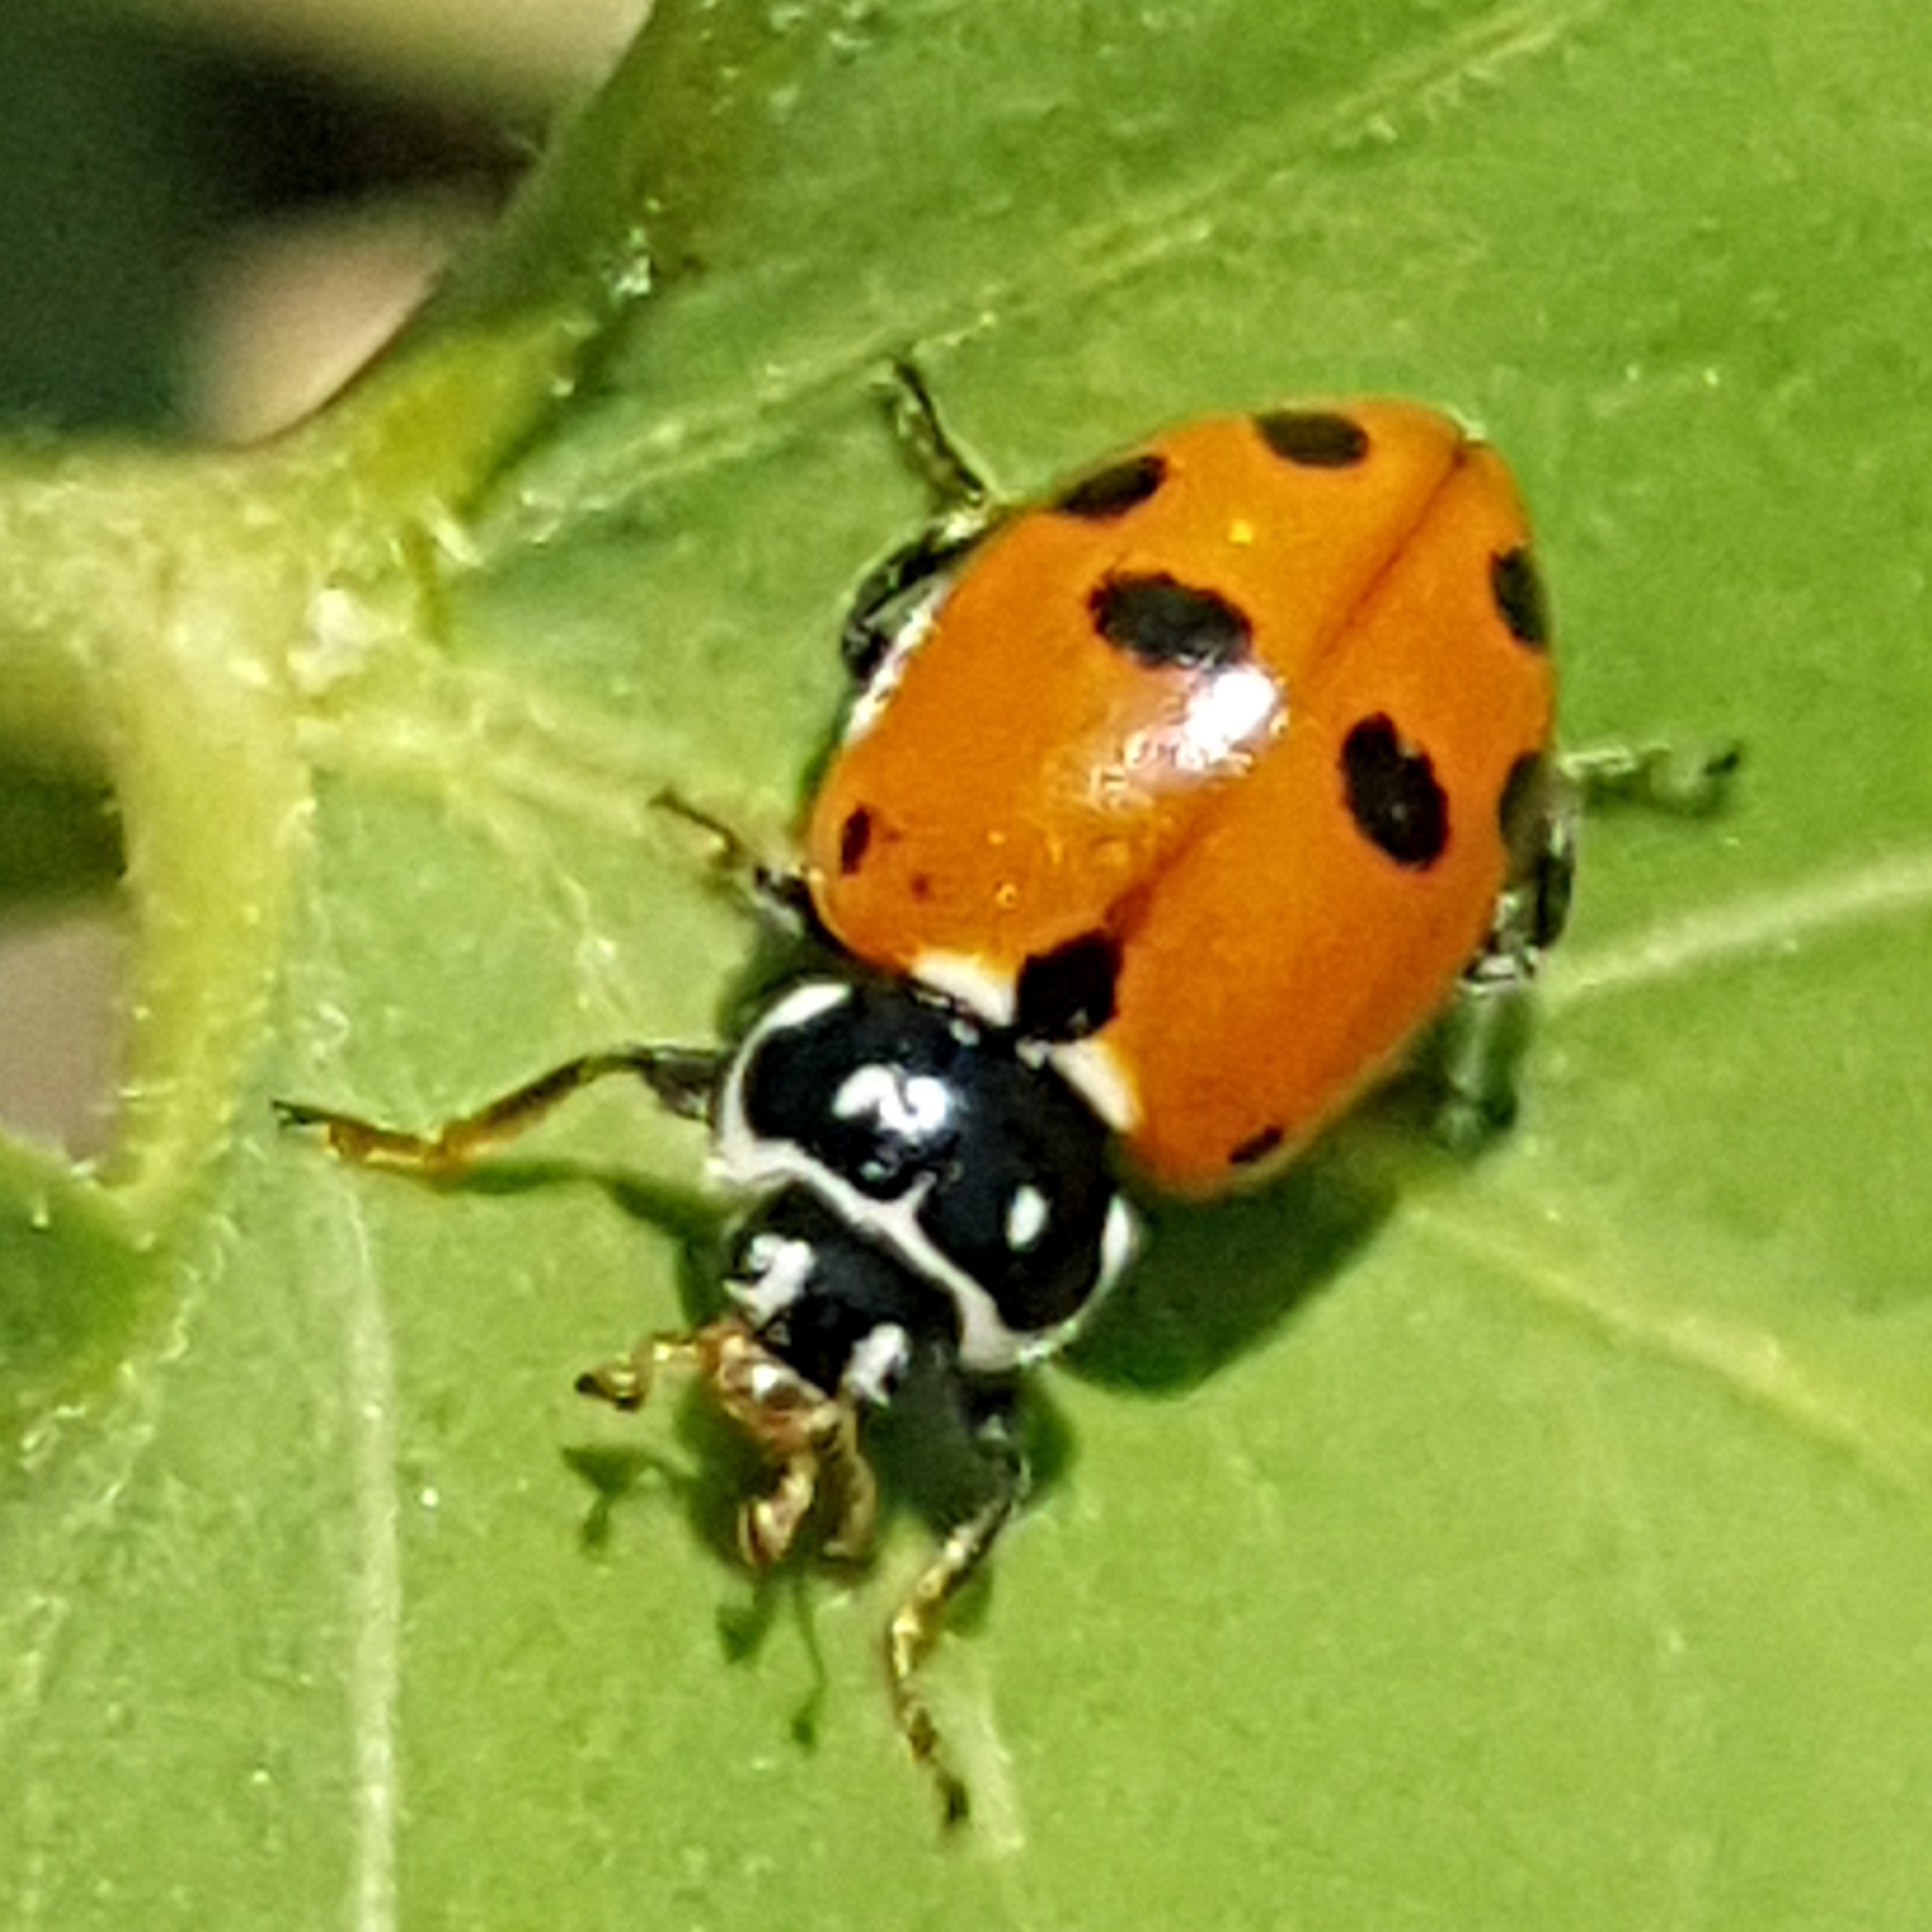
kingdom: Animalia
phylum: Arthropoda
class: Insecta
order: Coleoptera
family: Coccinellidae
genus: Hippodamia
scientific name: Hippodamia variegata
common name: Ladybird beetle
